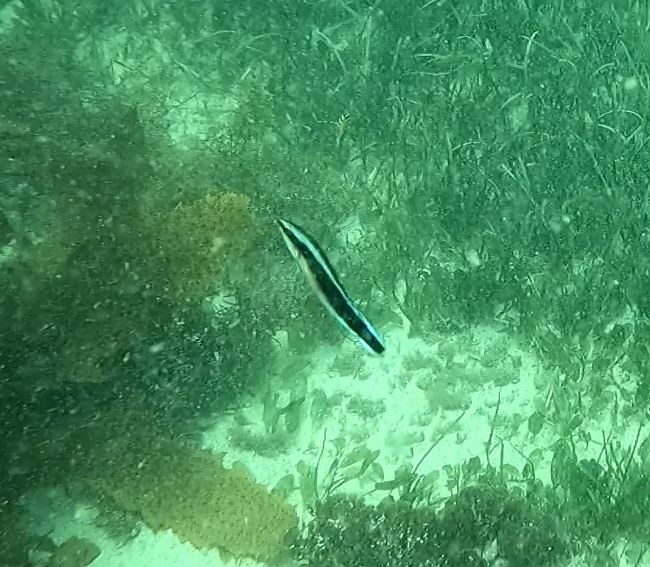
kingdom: Animalia
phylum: Chordata
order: Perciformes
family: Labridae
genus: Labroides
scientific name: Labroides dimidiatus
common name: Blue diesel wrasse
